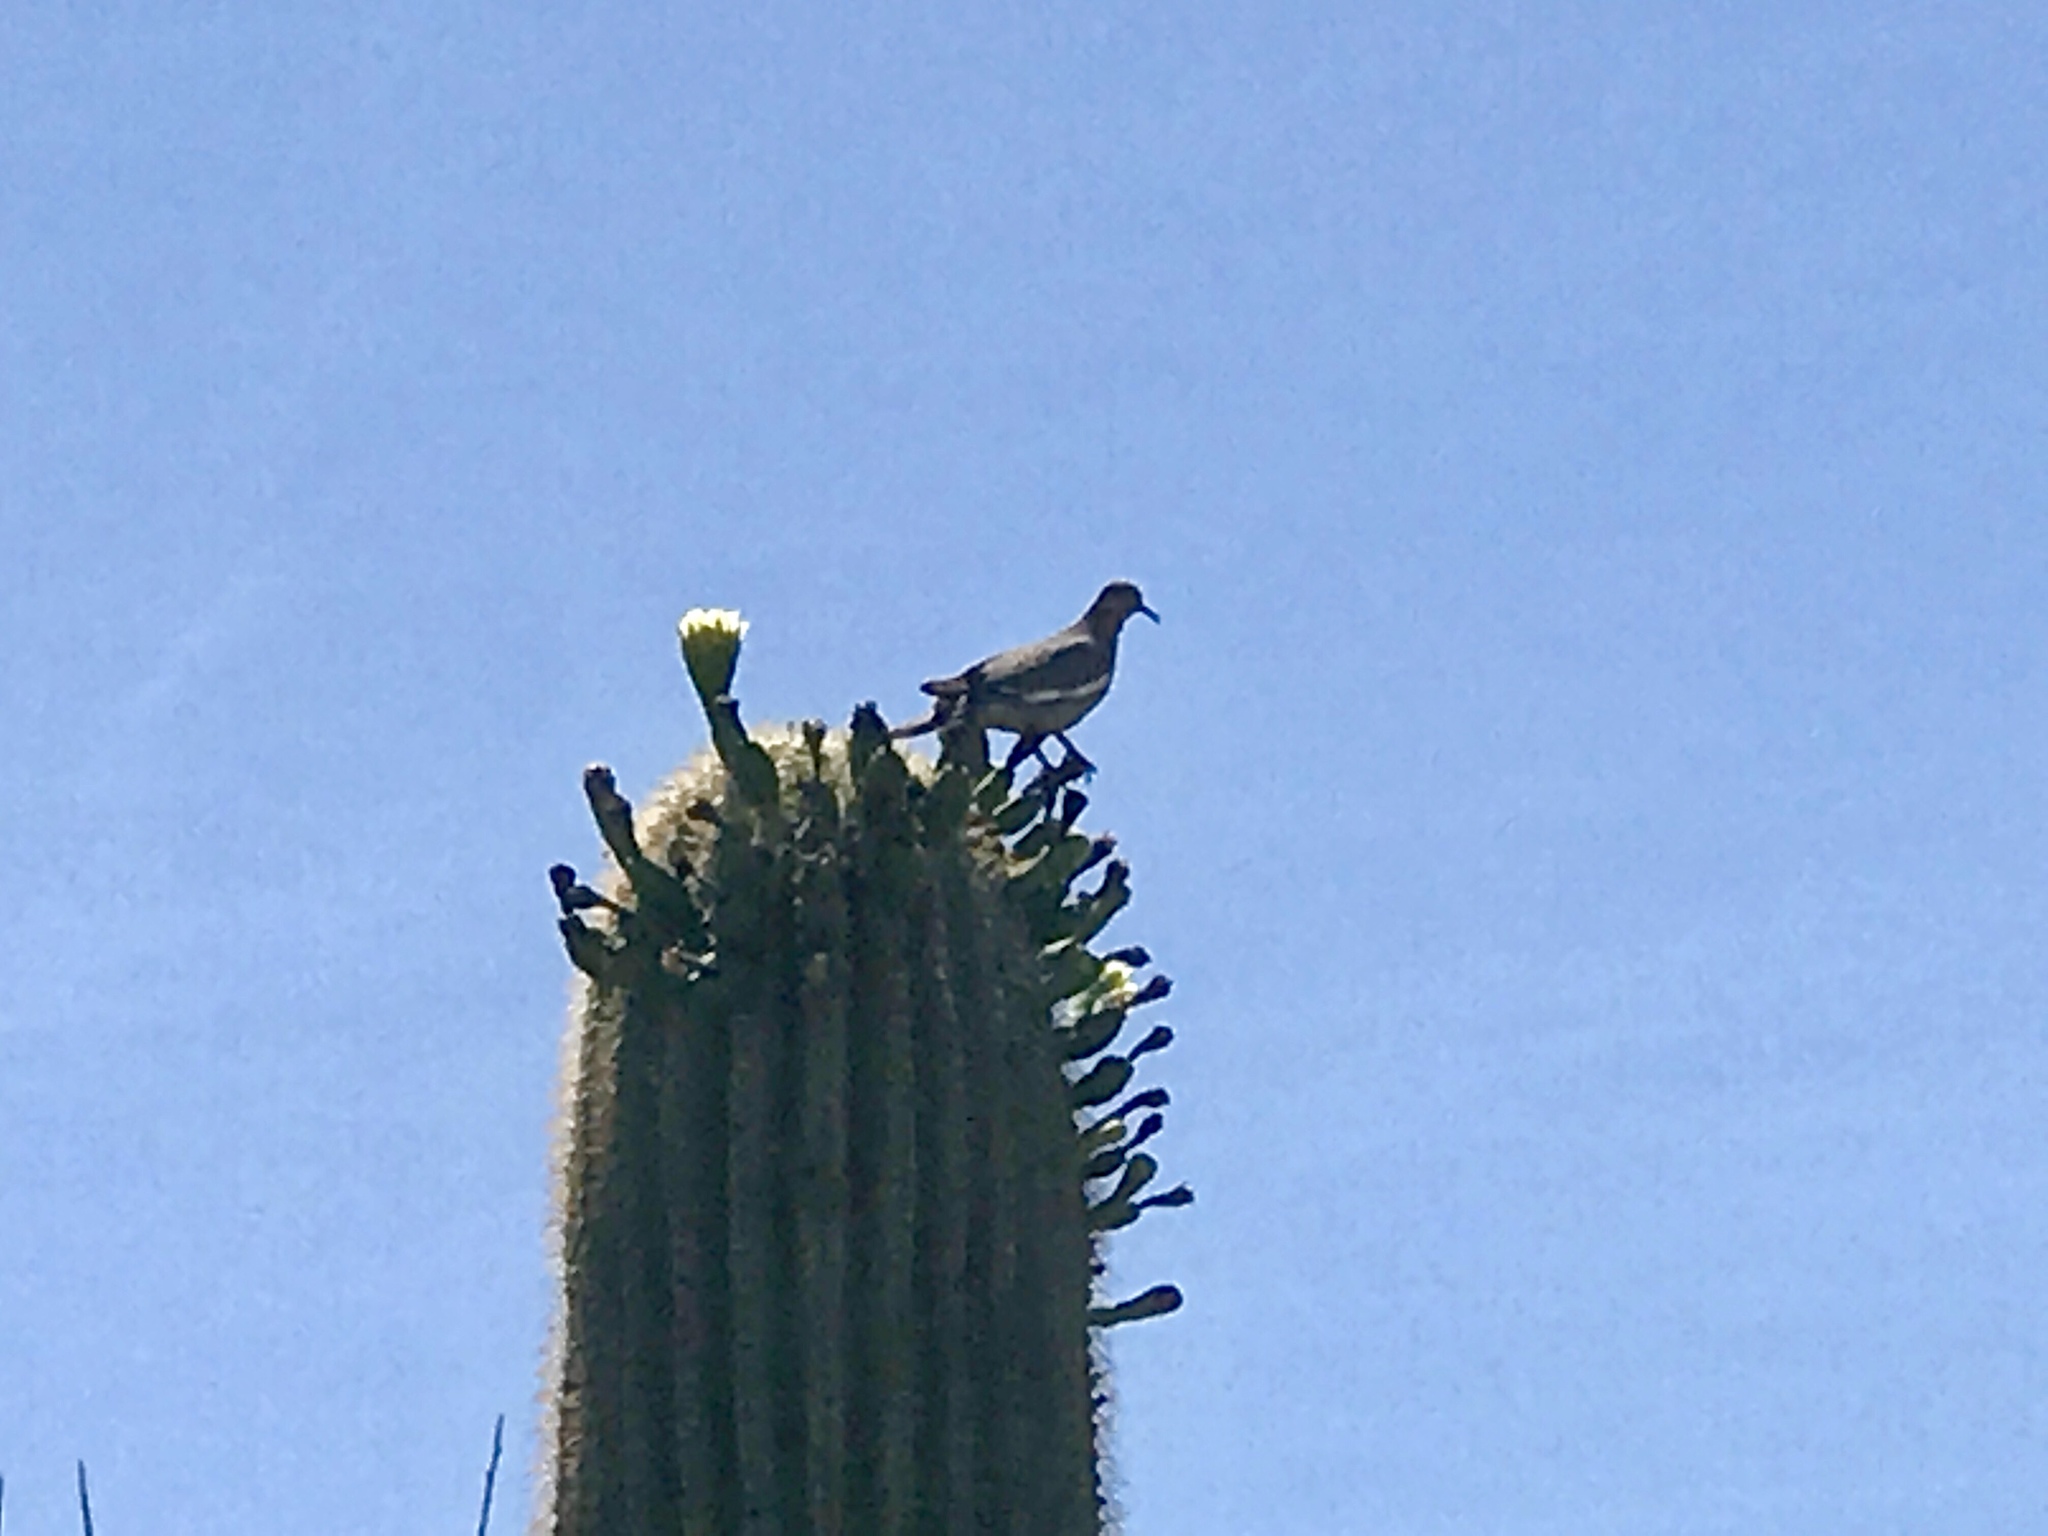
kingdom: Animalia
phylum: Chordata
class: Aves
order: Columbiformes
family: Columbidae
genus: Zenaida
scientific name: Zenaida asiatica
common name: White-winged dove
